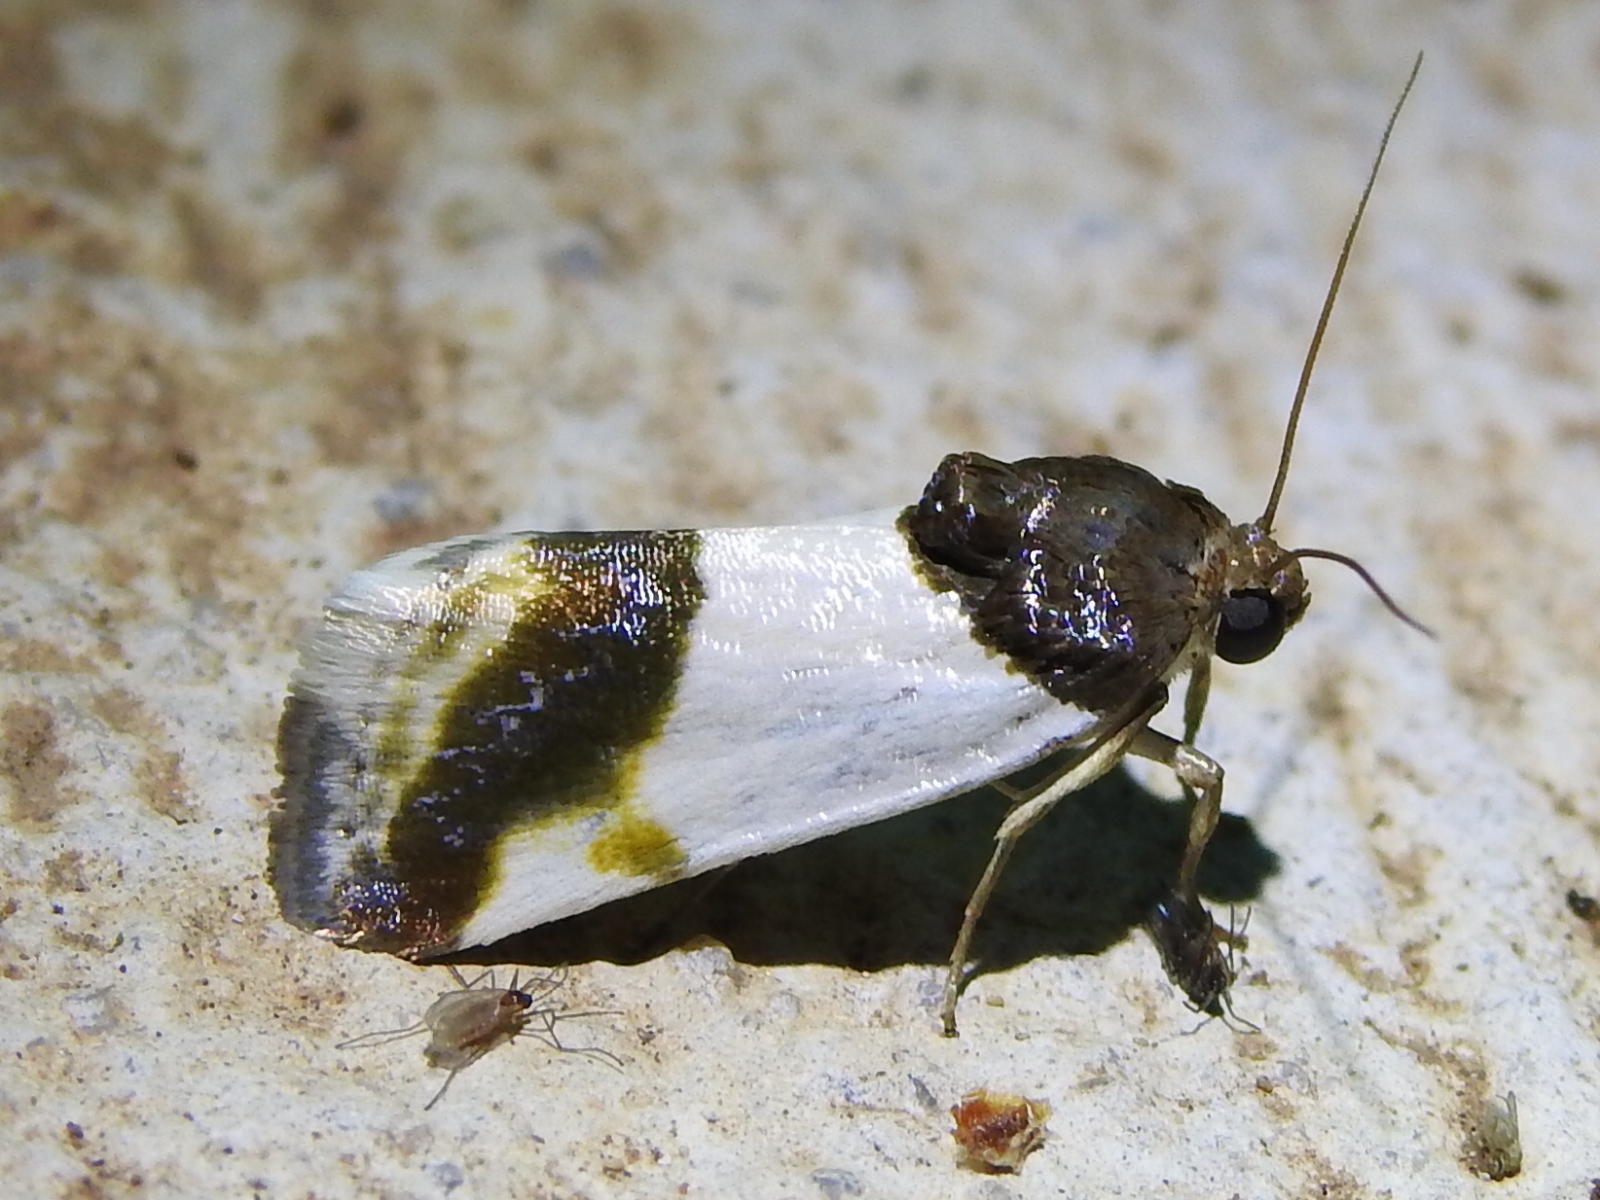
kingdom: Animalia
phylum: Arthropoda
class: Insecta
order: Lepidoptera
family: Noctuidae
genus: Acontia
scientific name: Acontia Tarache lactipennis
